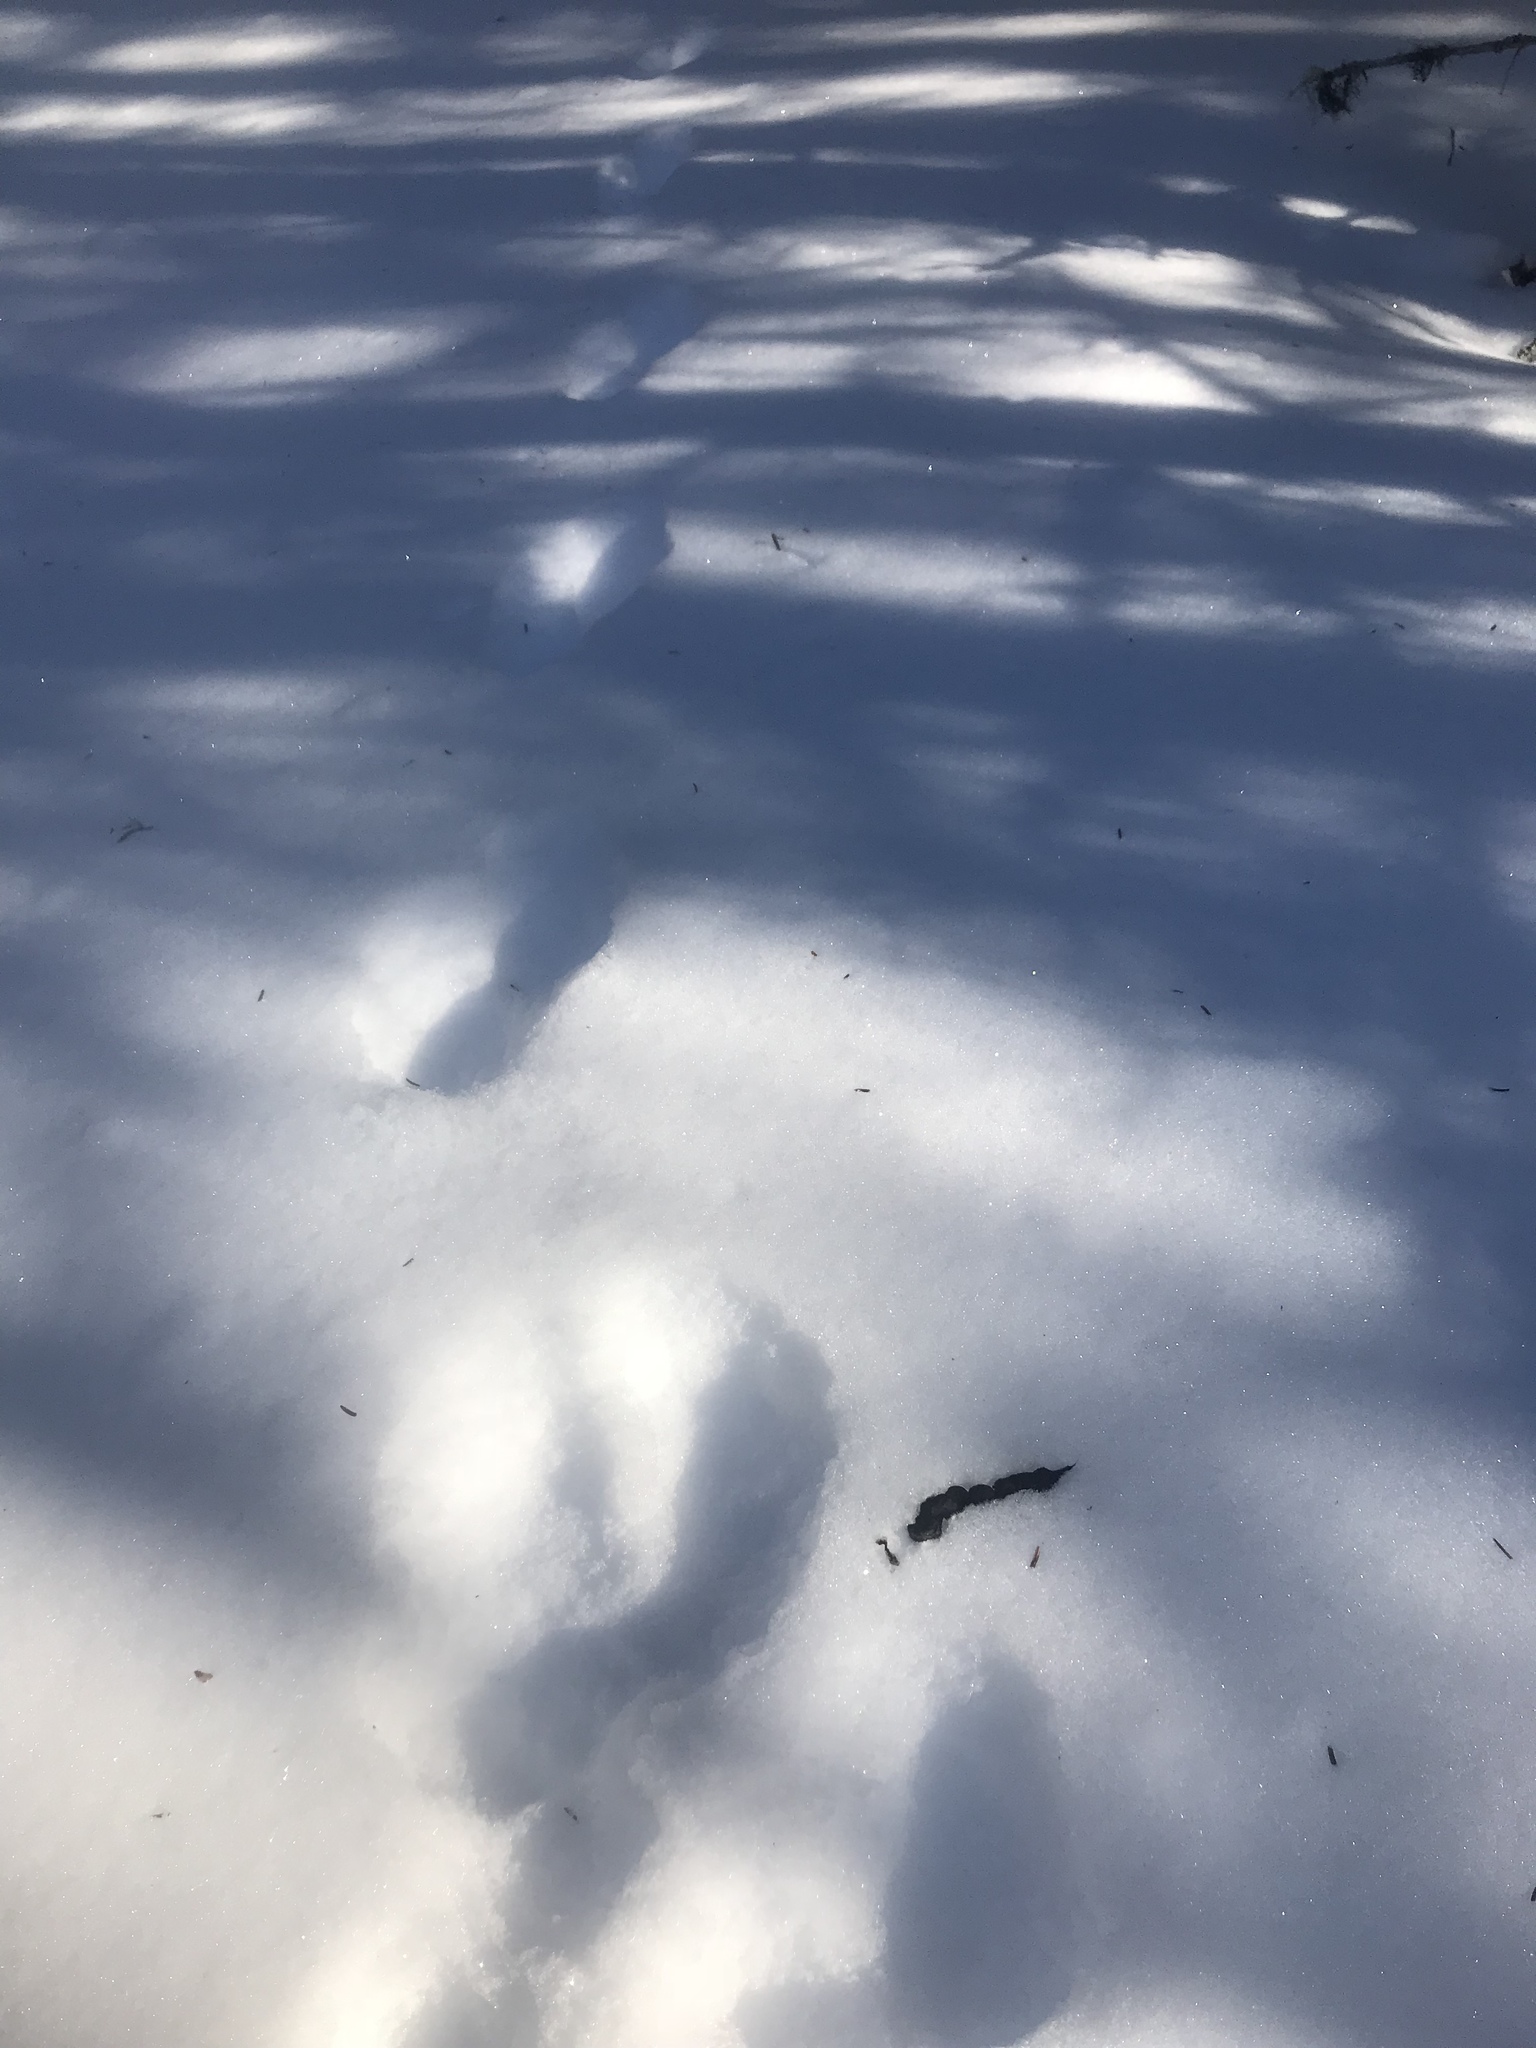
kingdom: Animalia
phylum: Chordata
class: Mammalia
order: Carnivora
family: Mustelidae
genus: Martes
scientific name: Martes americana
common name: American marten
